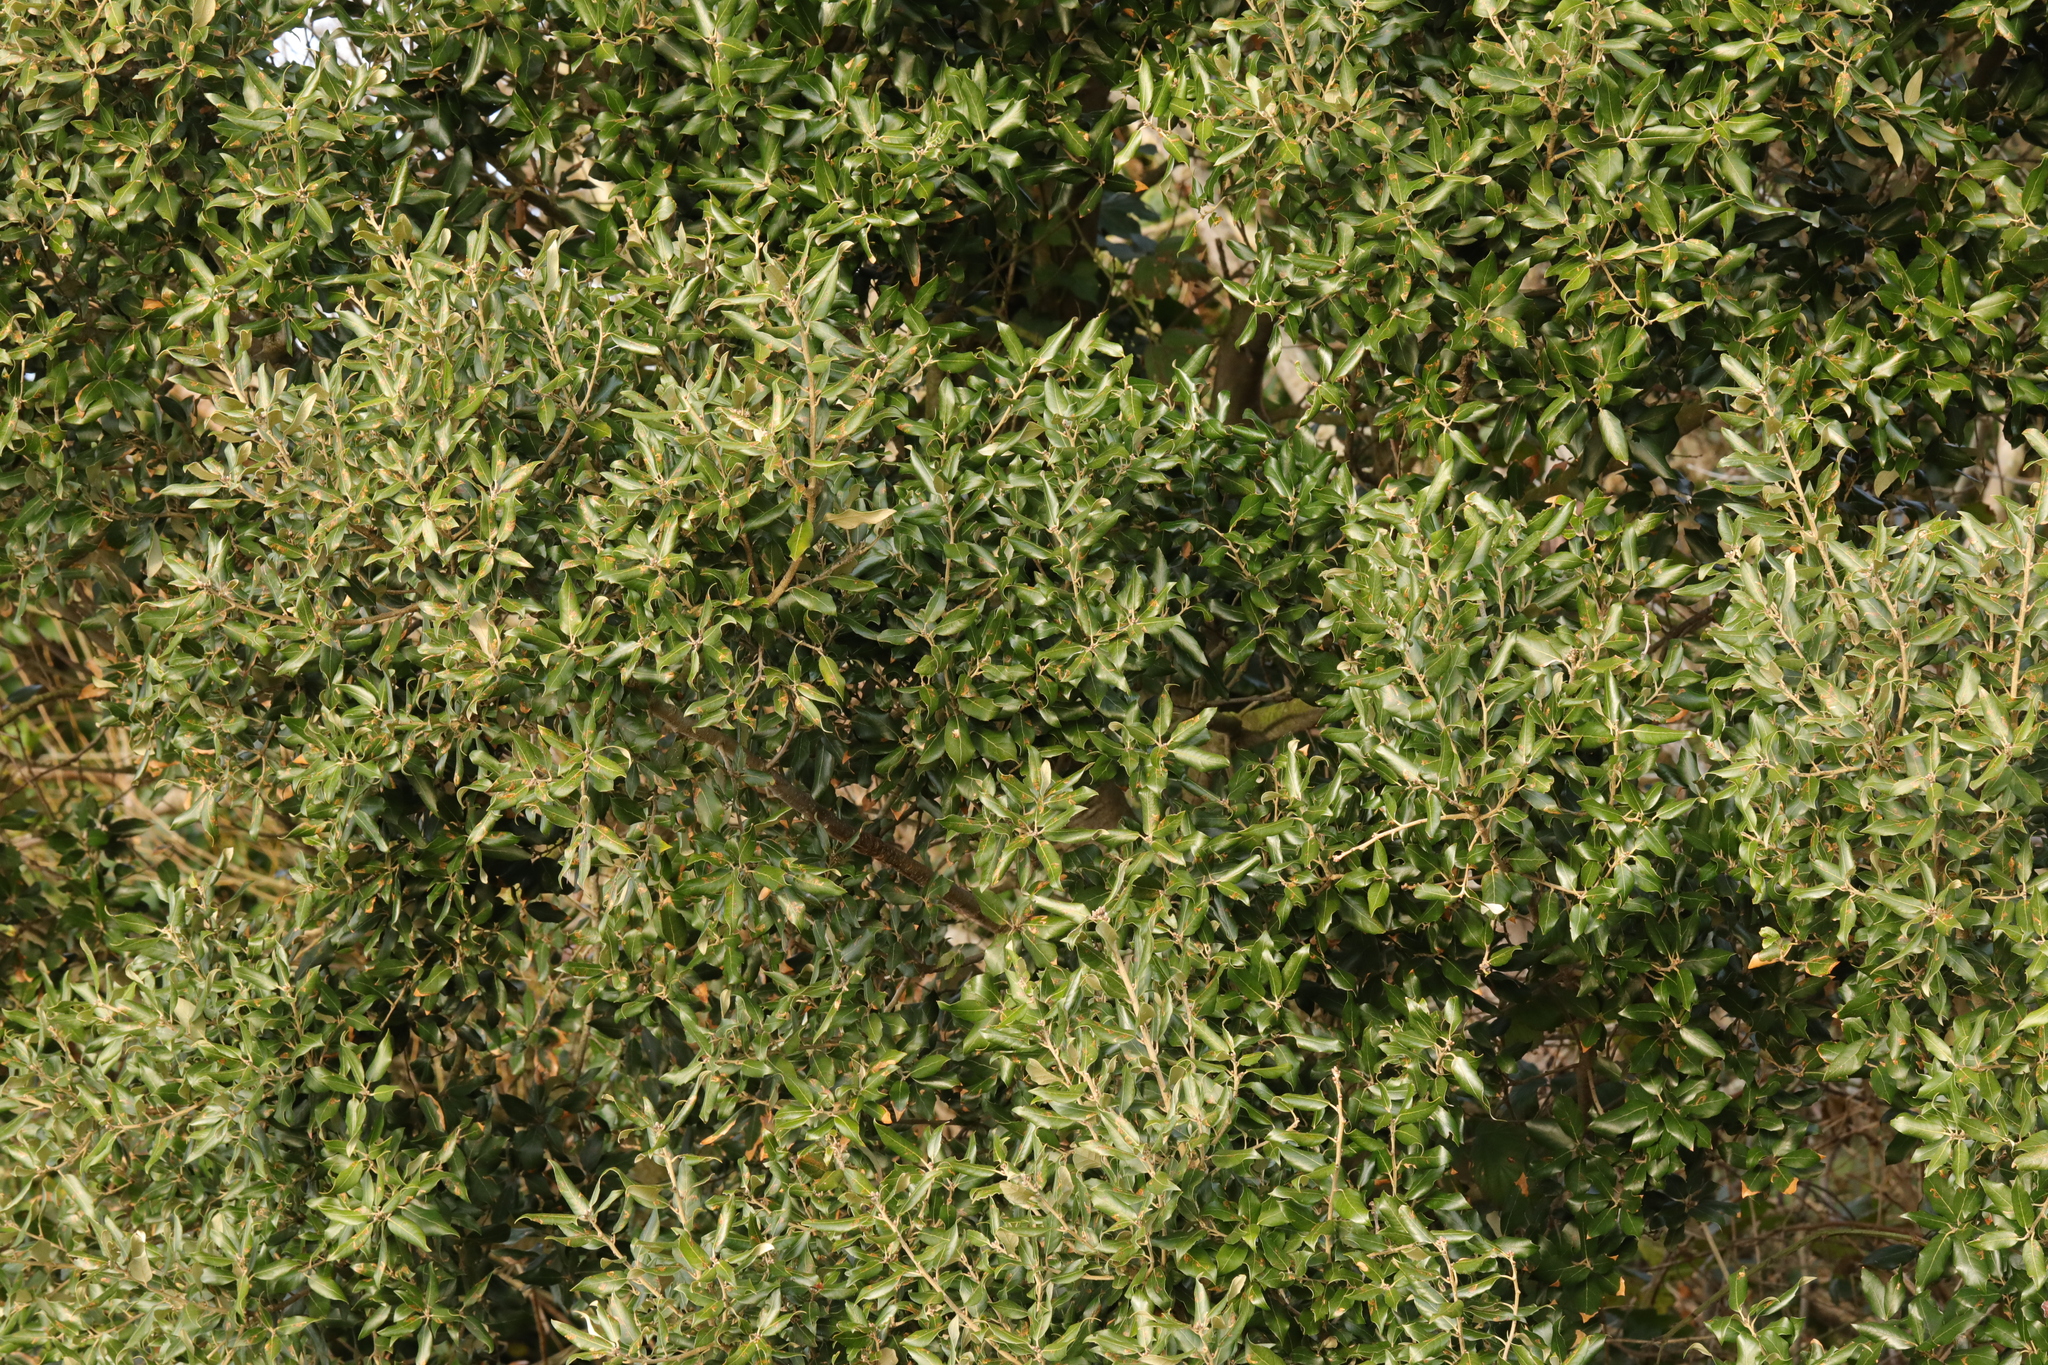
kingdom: Plantae
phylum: Tracheophyta
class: Magnoliopsida
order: Fagales
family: Fagaceae
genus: Quercus
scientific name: Quercus ilex
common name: Evergreen oak
